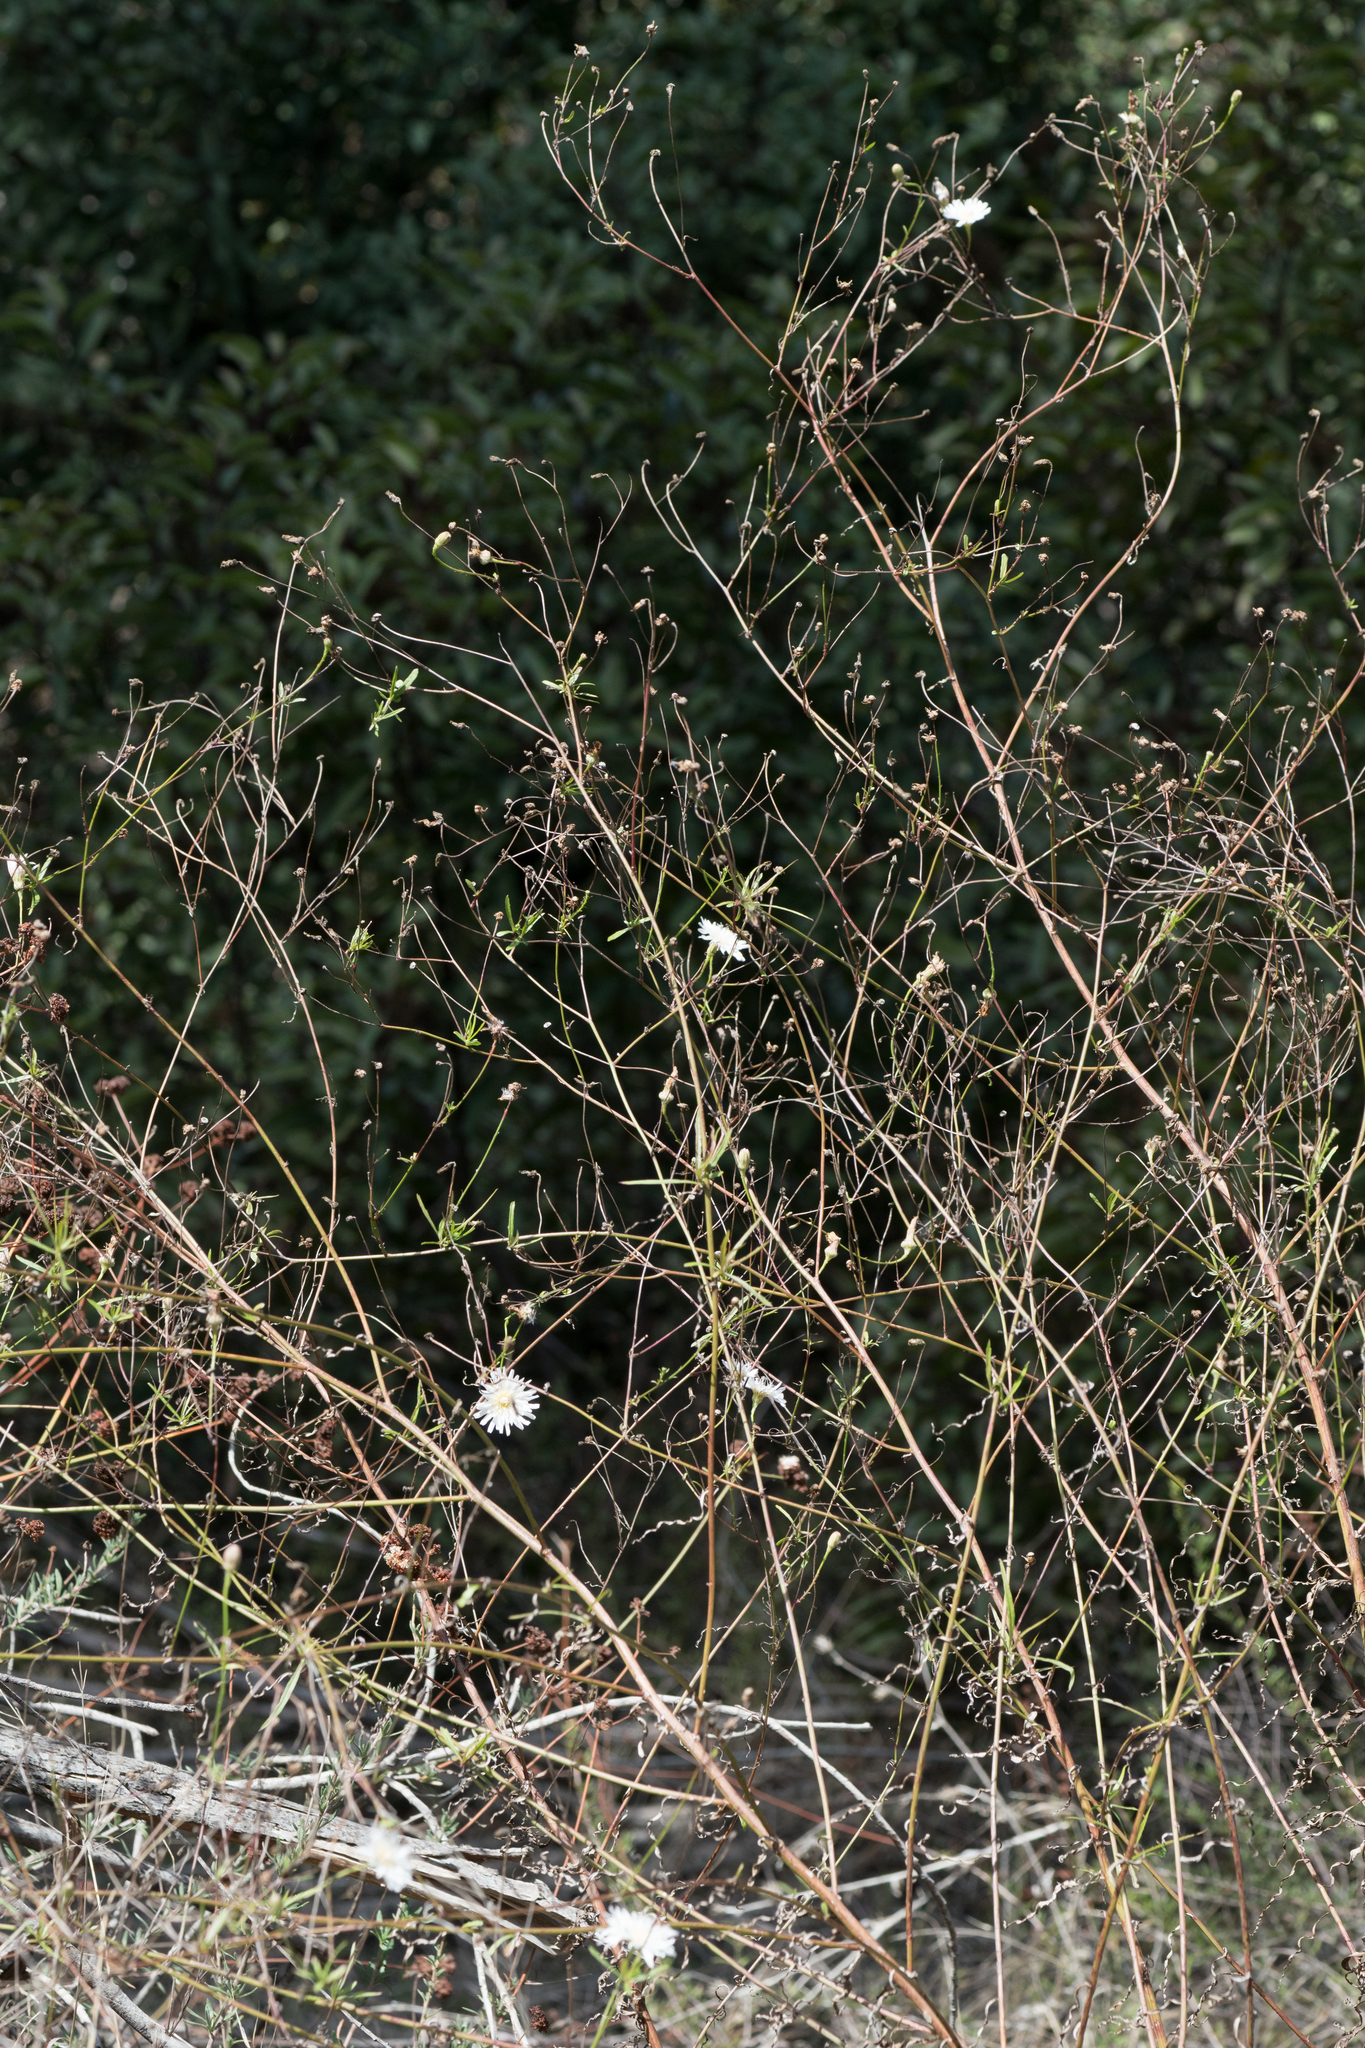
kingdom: Plantae
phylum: Tracheophyta
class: Magnoliopsida
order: Asterales
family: Asteraceae
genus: Malacothrix
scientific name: Malacothrix saxatilis
